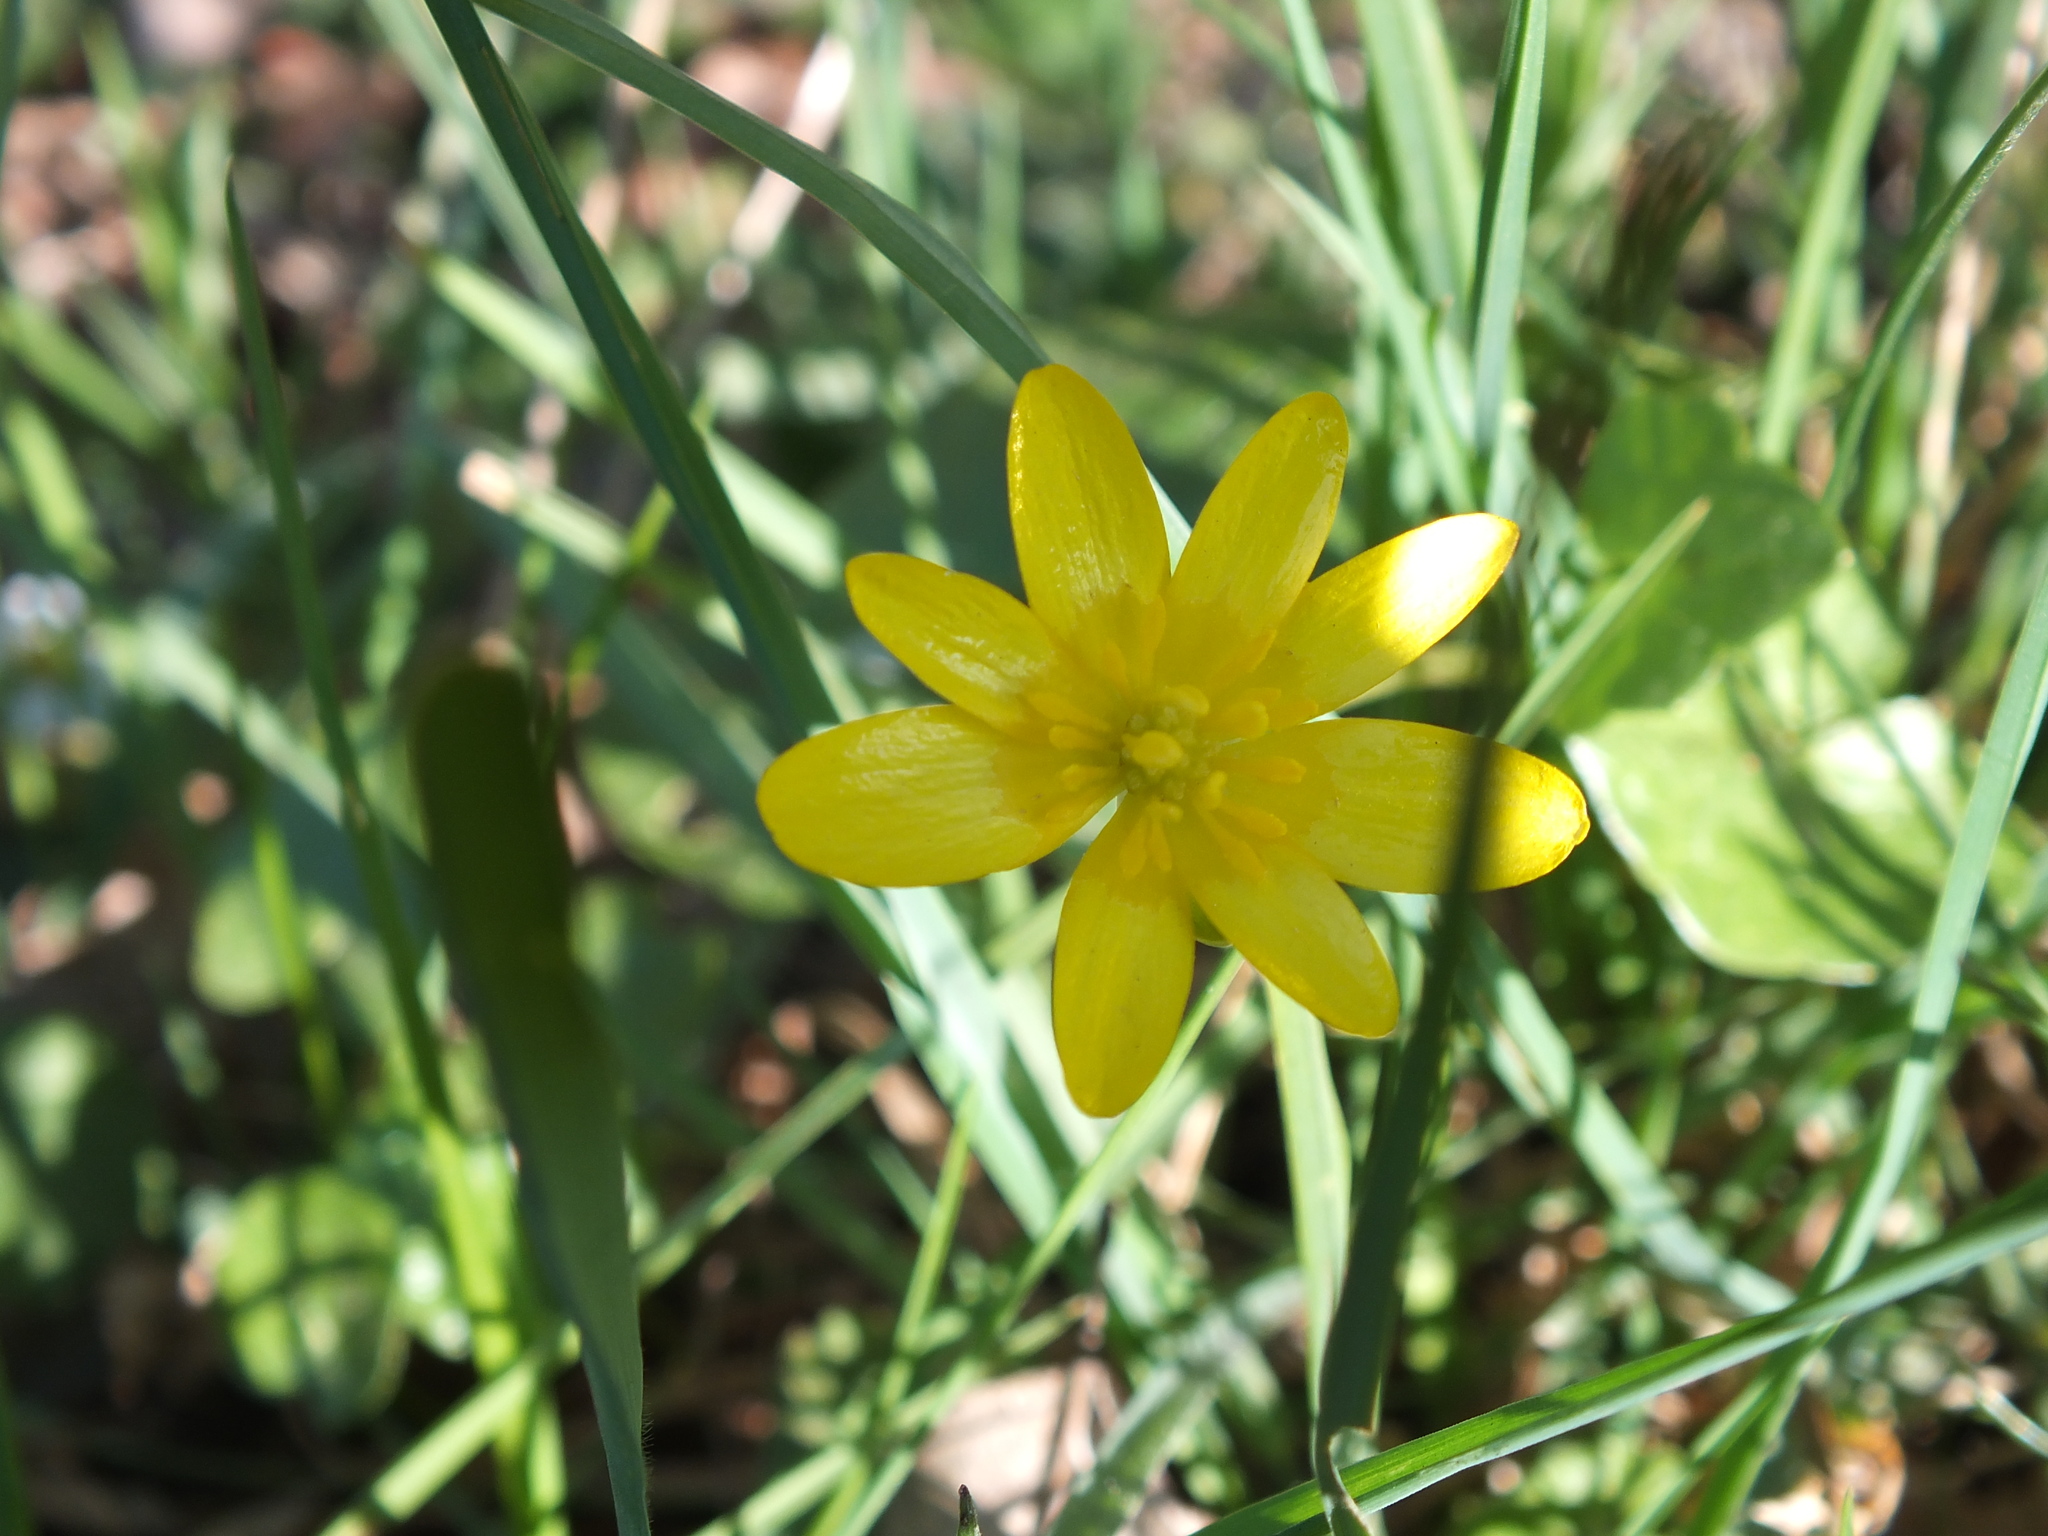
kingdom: Plantae
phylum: Tracheophyta
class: Magnoliopsida
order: Ranunculales
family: Ranunculaceae
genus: Ficaria
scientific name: Ficaria verna
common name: Lesser celandine
